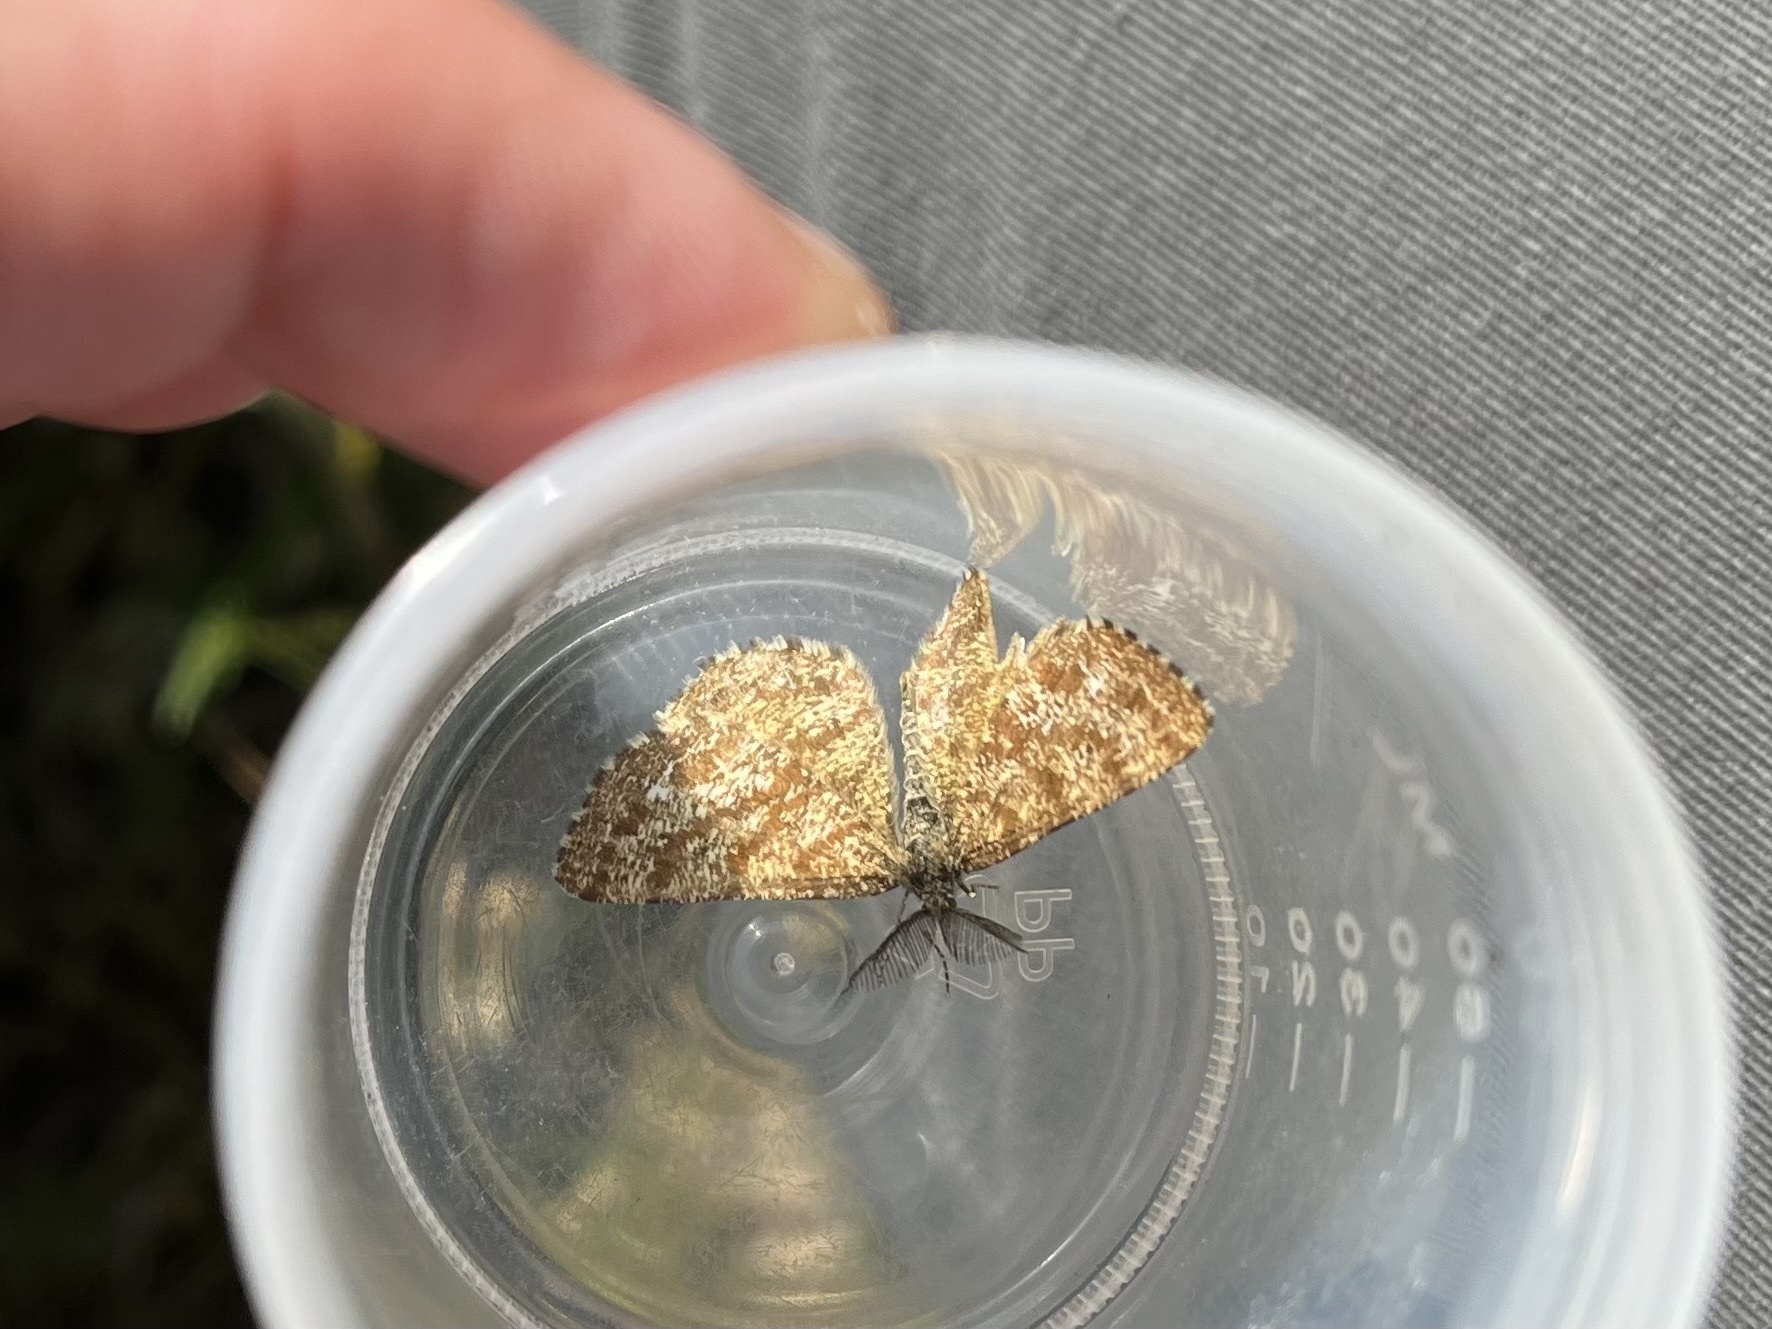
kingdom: Animalia
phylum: Arthropoda
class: Insecta
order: Lepidoptera
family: Geometridae
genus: Ematurga
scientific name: Ematurga atomaria
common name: Common heath
